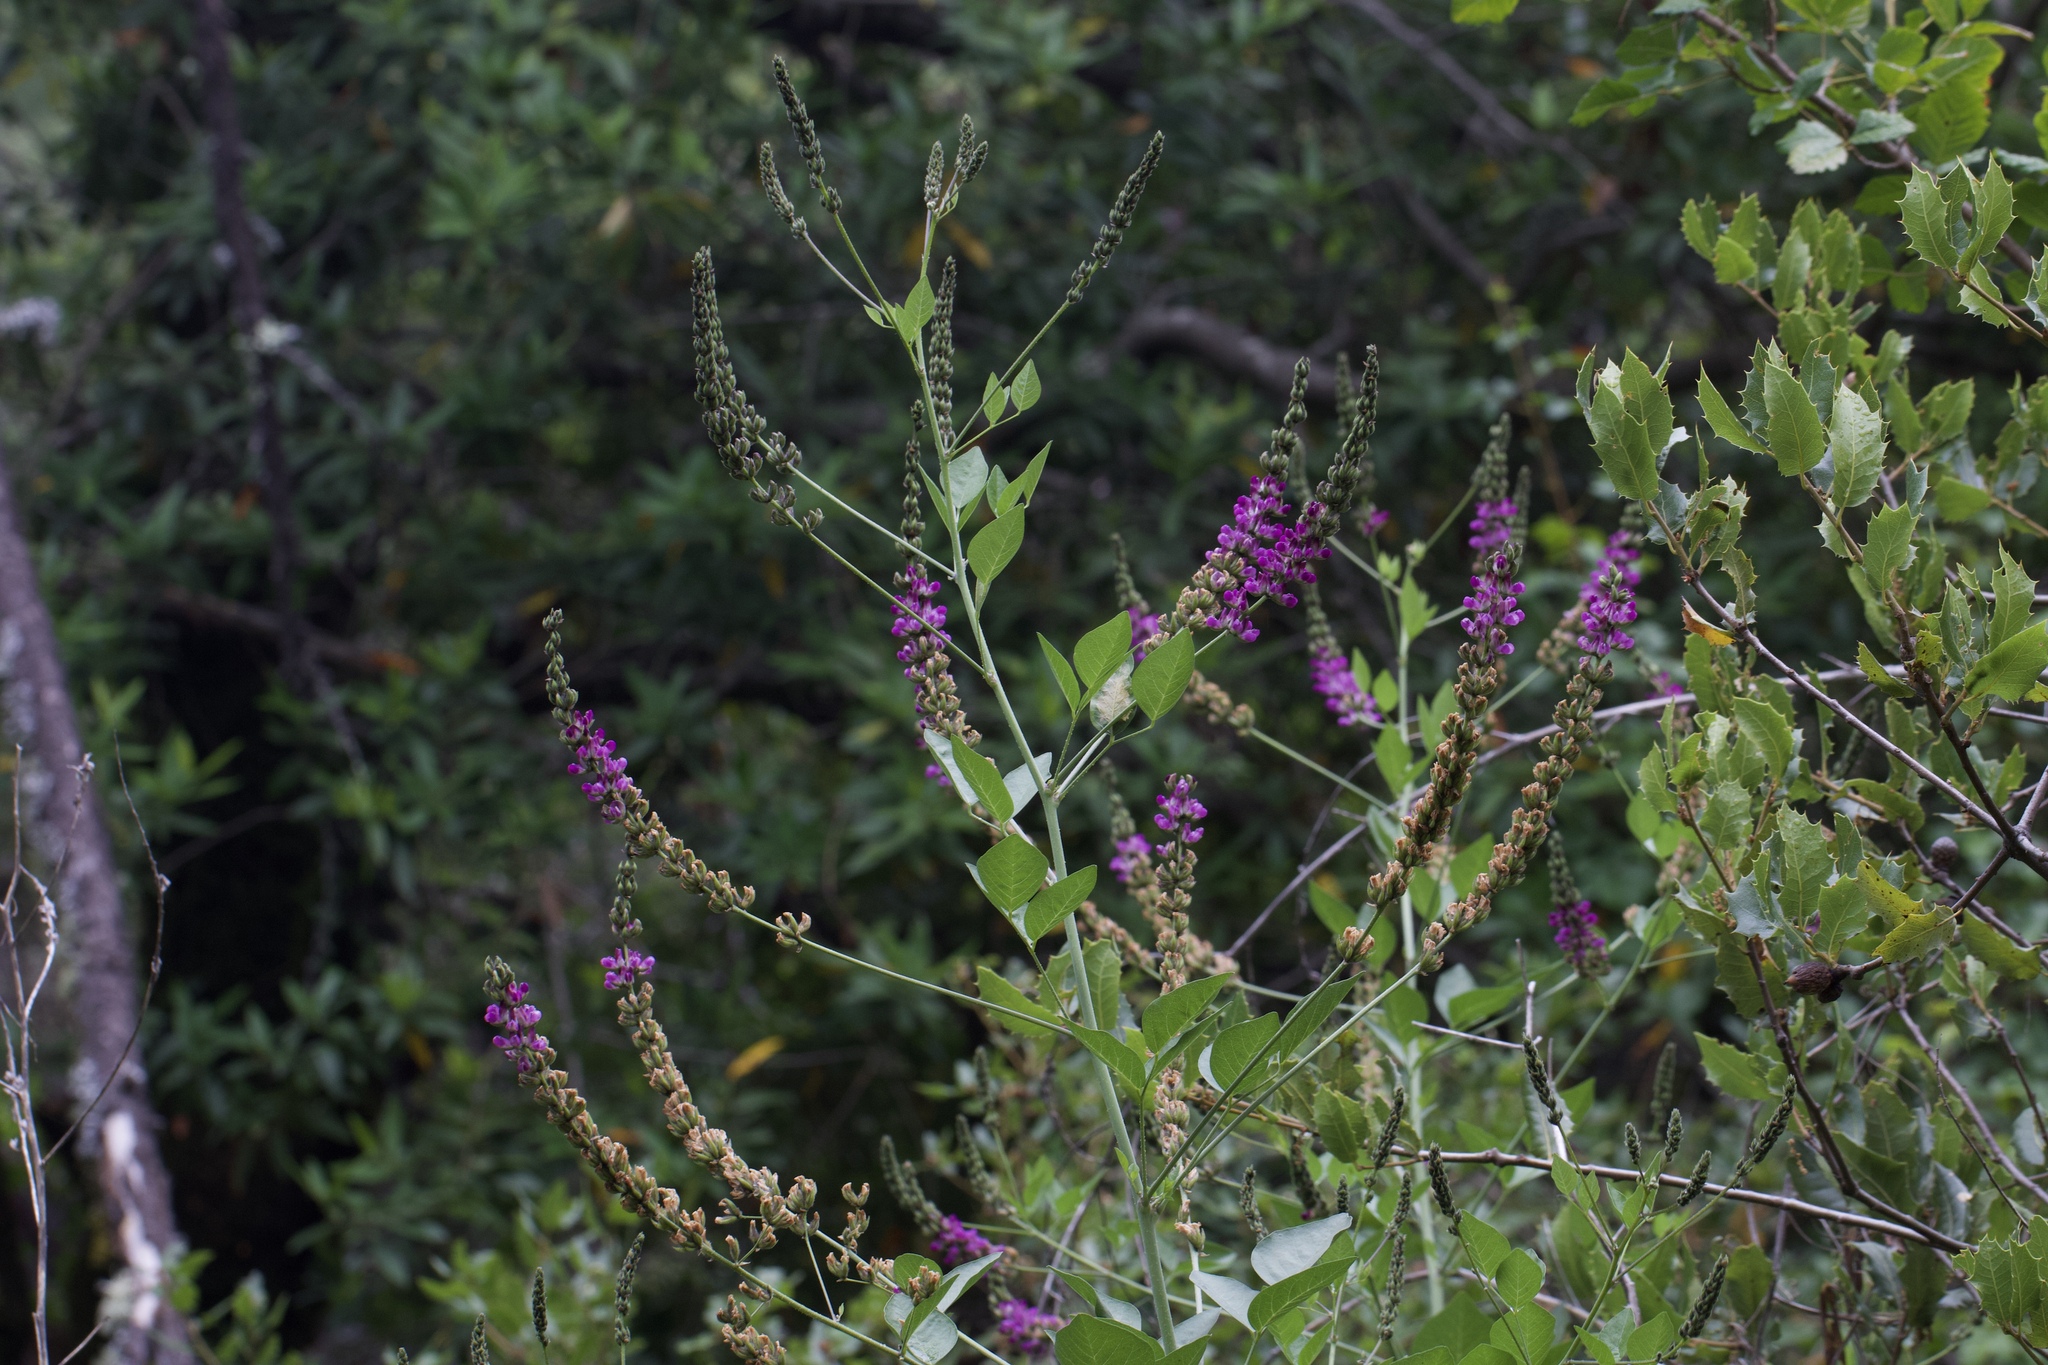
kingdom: Plantae
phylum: Tracheophyta
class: Magnoliopsida
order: Fabales
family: Fabaceae
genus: Hoita
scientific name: Hoita macrostachya
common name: Leatherroot
